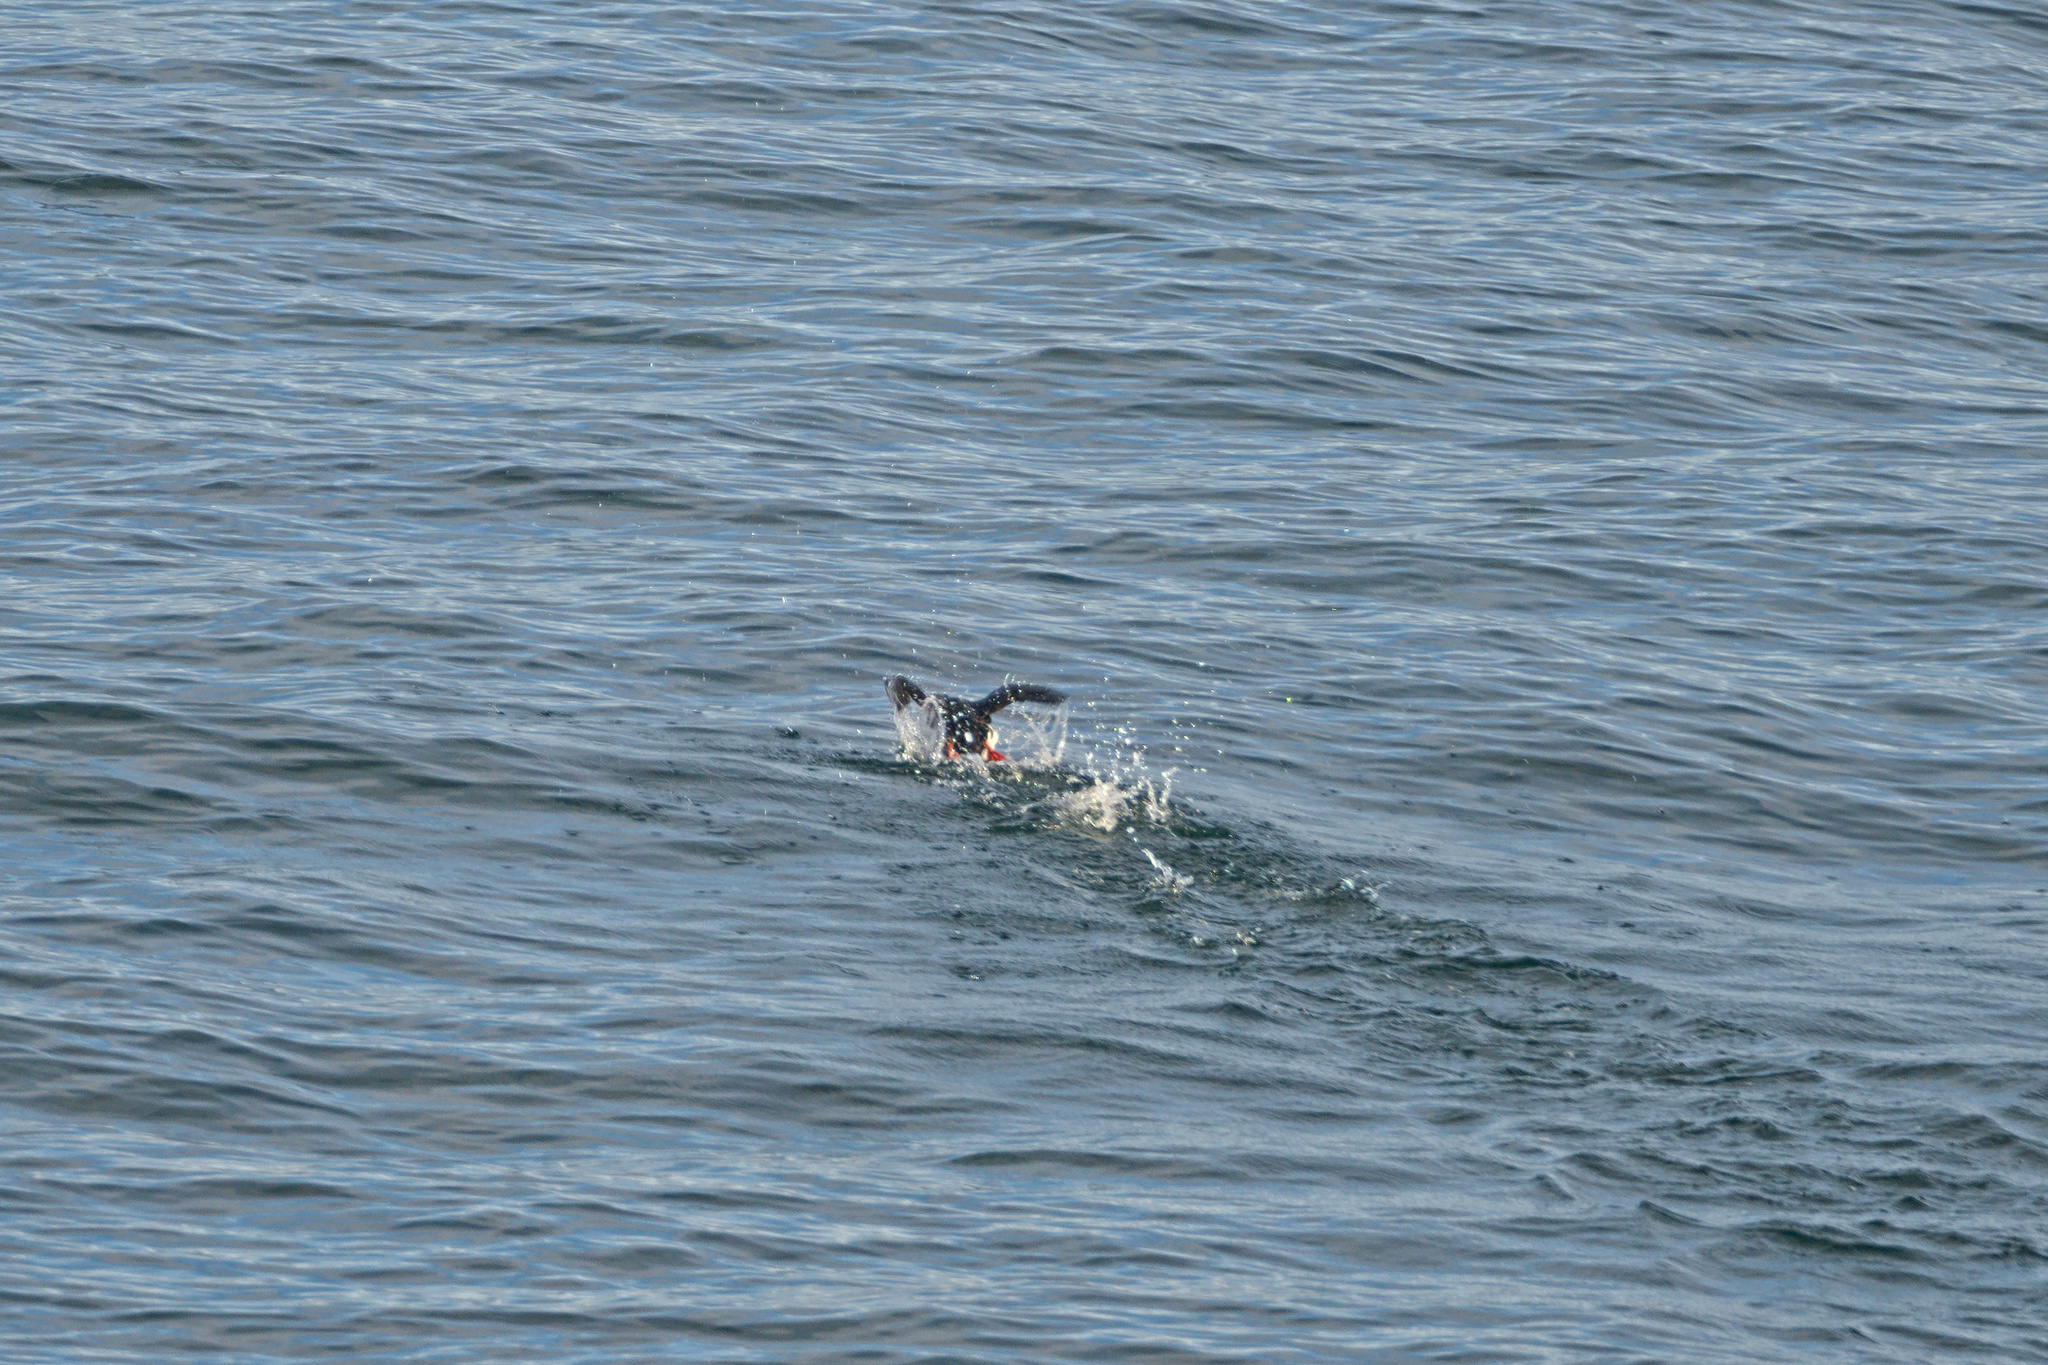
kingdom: Animalia
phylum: Chordata
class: Aves
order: Charadriiformes
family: Alcidae
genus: Fratercula
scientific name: Fratercula arctica
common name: Atlantic puffin
